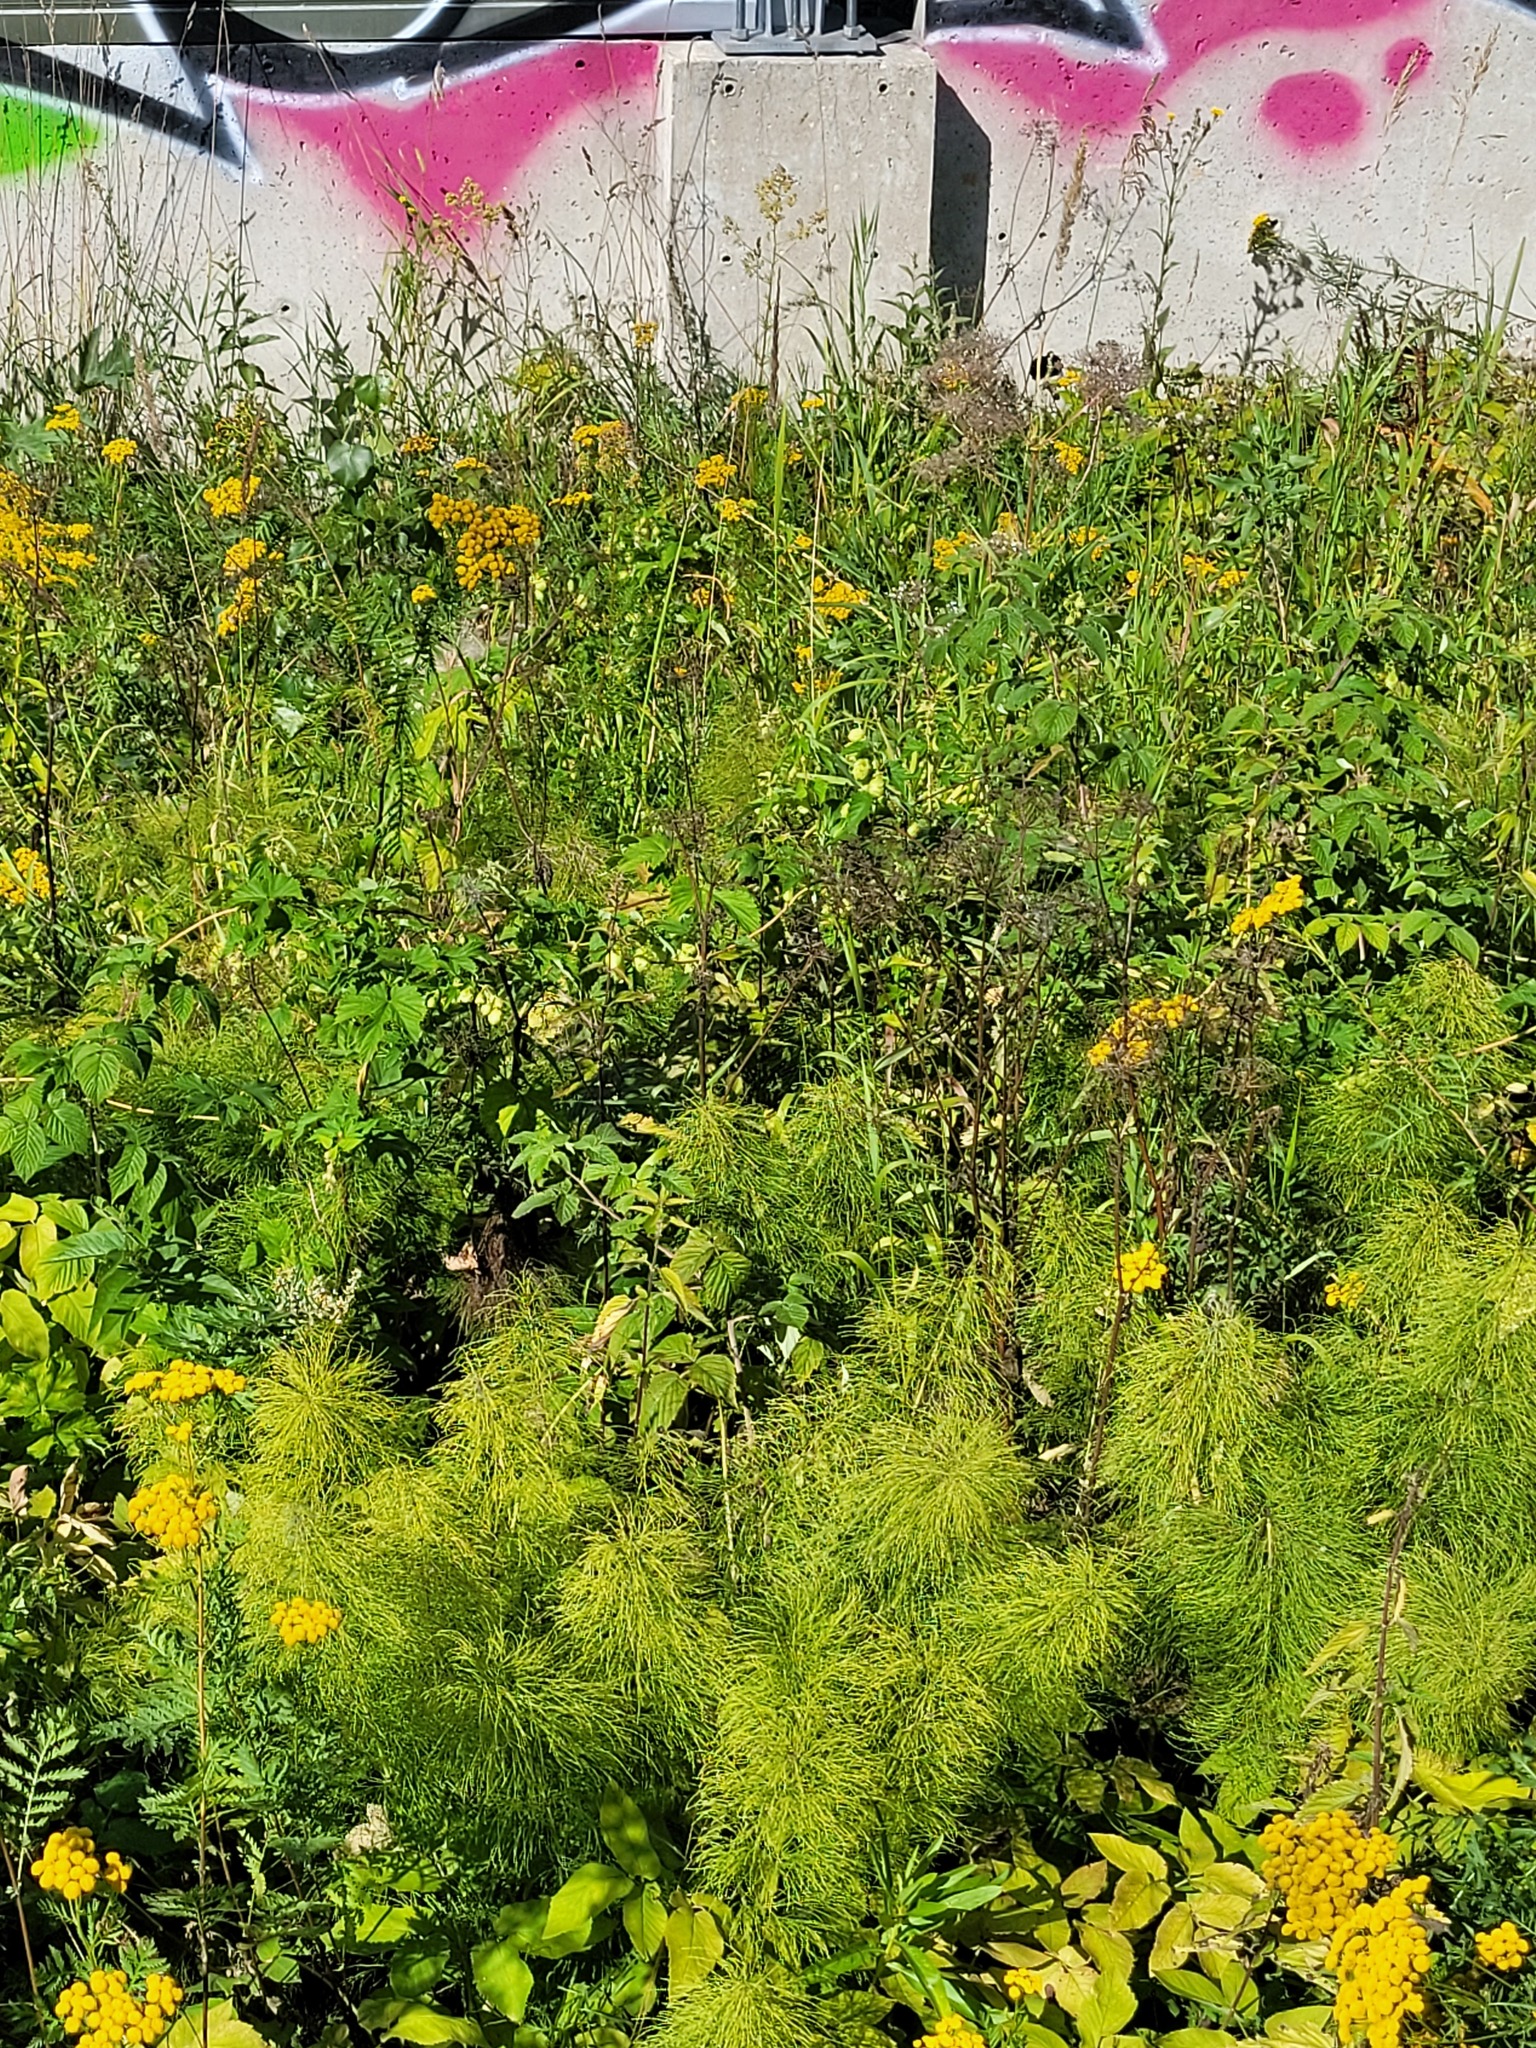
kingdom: Plantae
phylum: Tracheophyta
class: Polypodiopsida
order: Equisetales
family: Equisetaceae
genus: Equisetum
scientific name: Equisetum sylvaticum
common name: Wood horsetail
